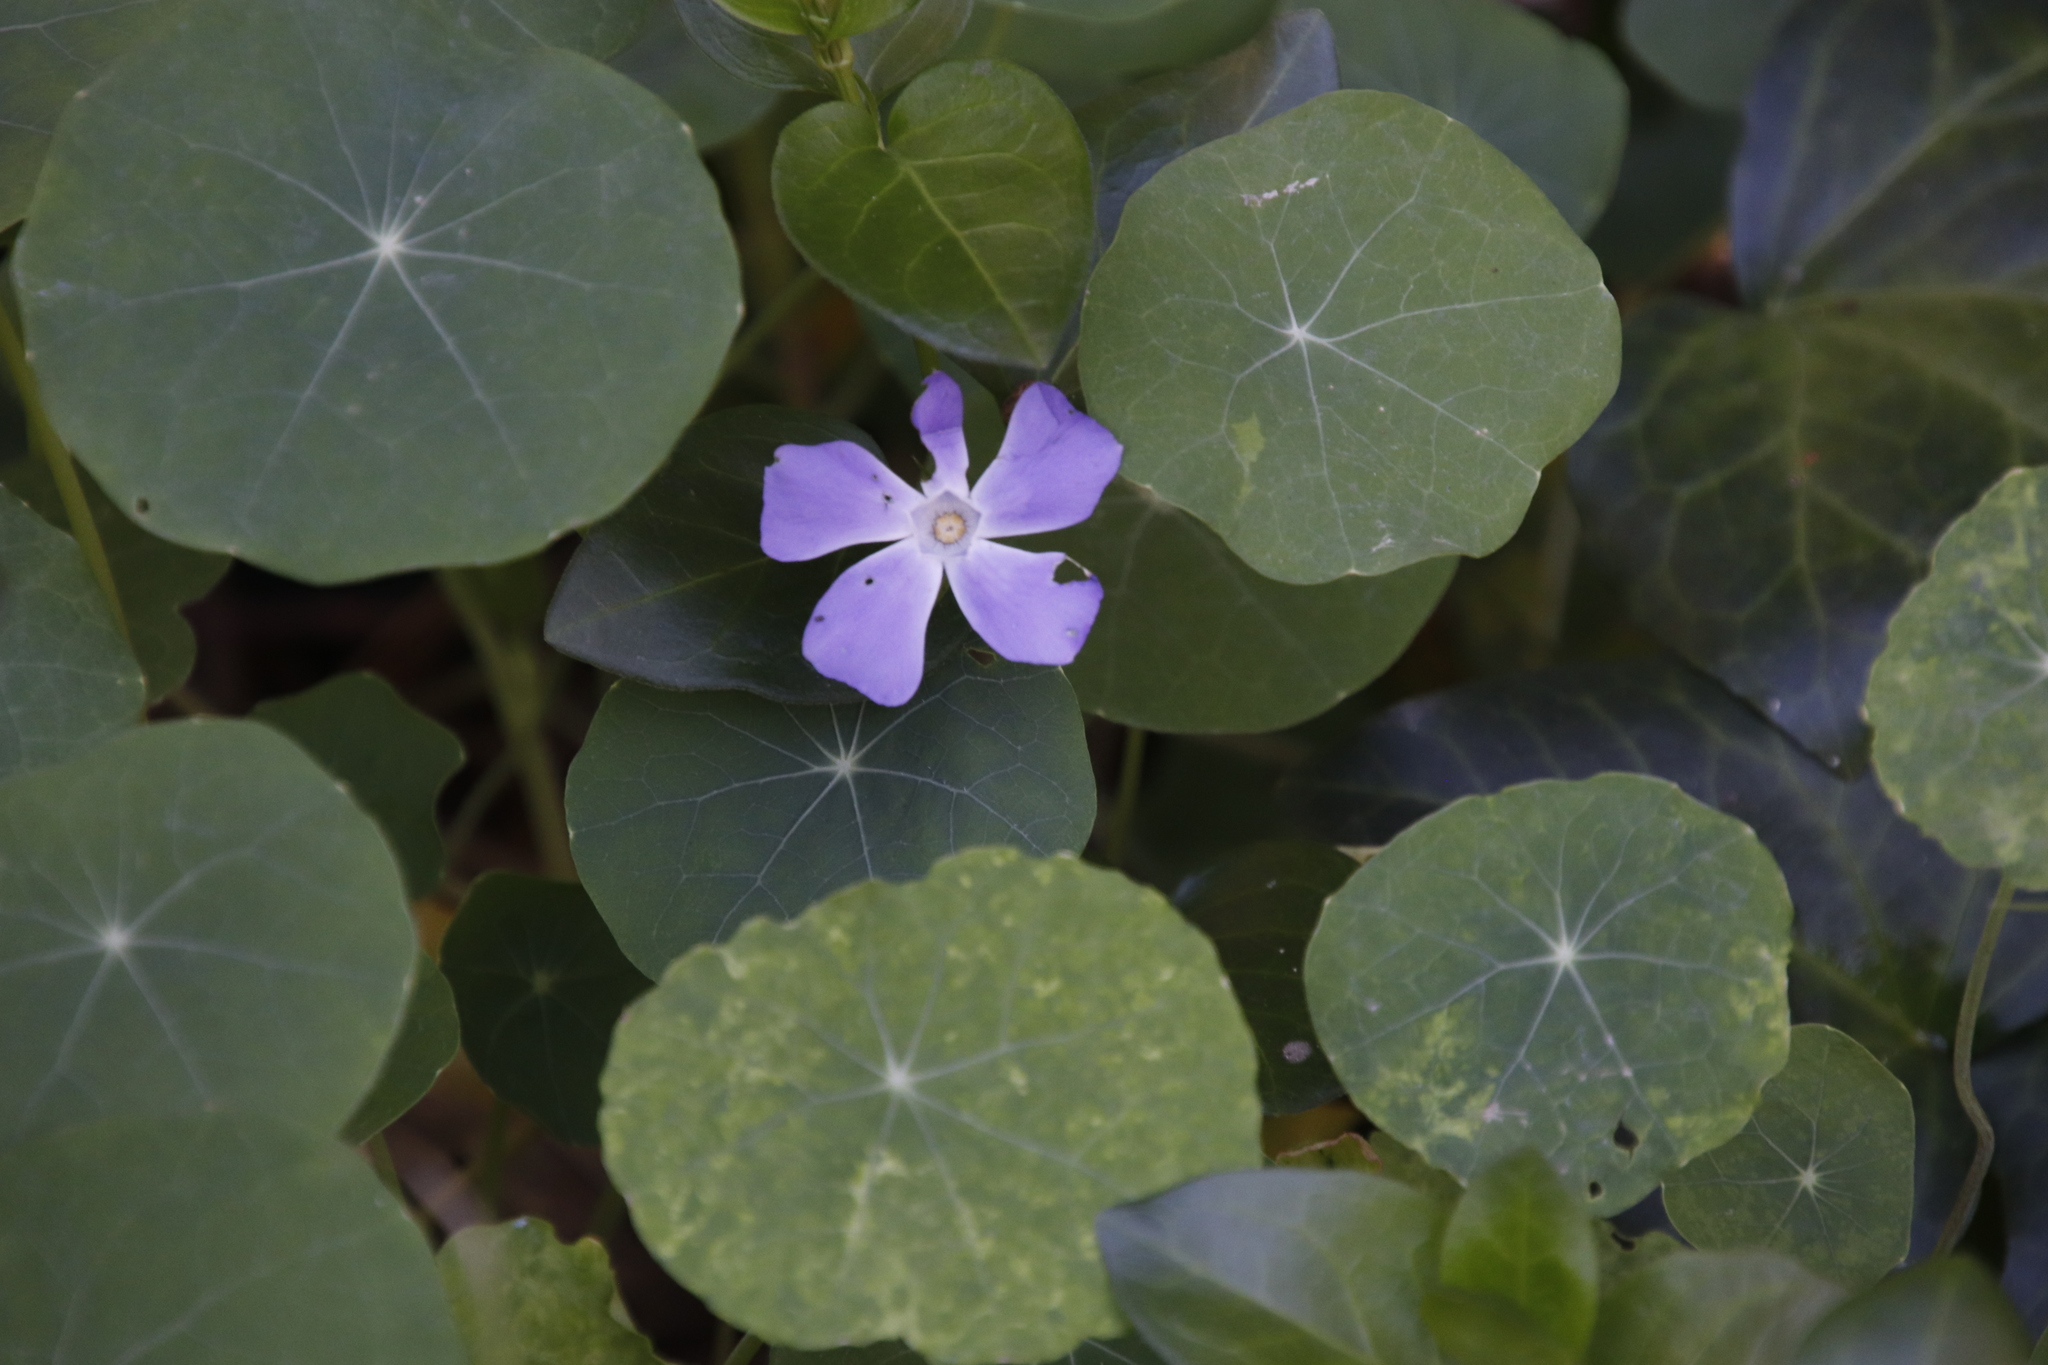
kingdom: Plantae
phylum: Tracheophyta
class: Magnoliopsida
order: Gentianales
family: Apocynaceae
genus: Vinca
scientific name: Vinca major
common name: Greater periwinkle
